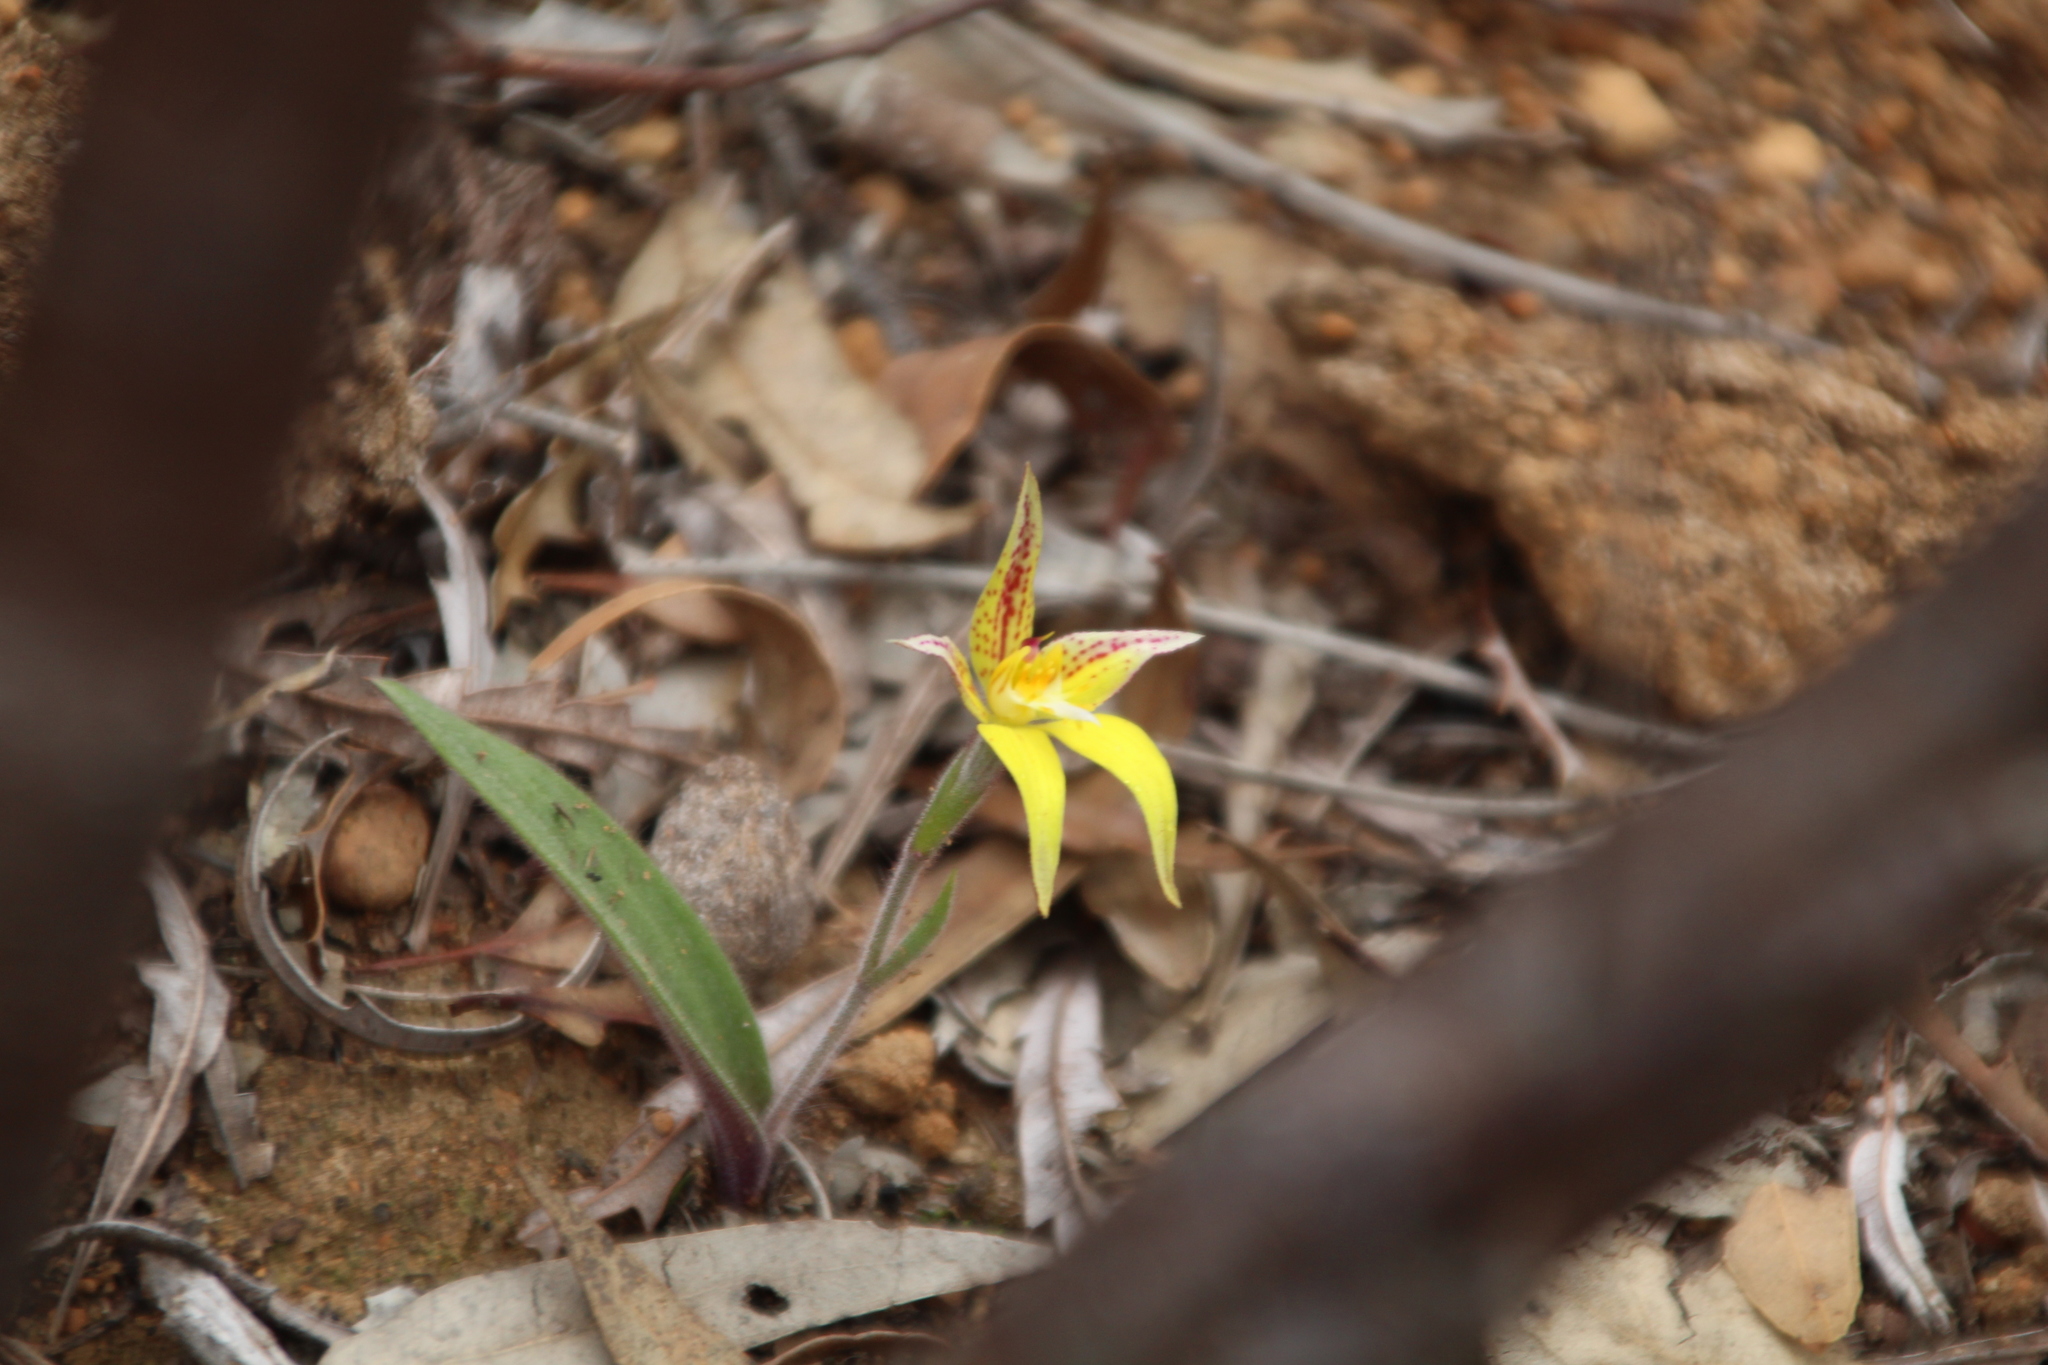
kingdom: Plantae
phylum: Tracheophyta
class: Liliopsida
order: Asparagales
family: Orchidaceae
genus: Caladenia
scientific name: Caladenia flava
